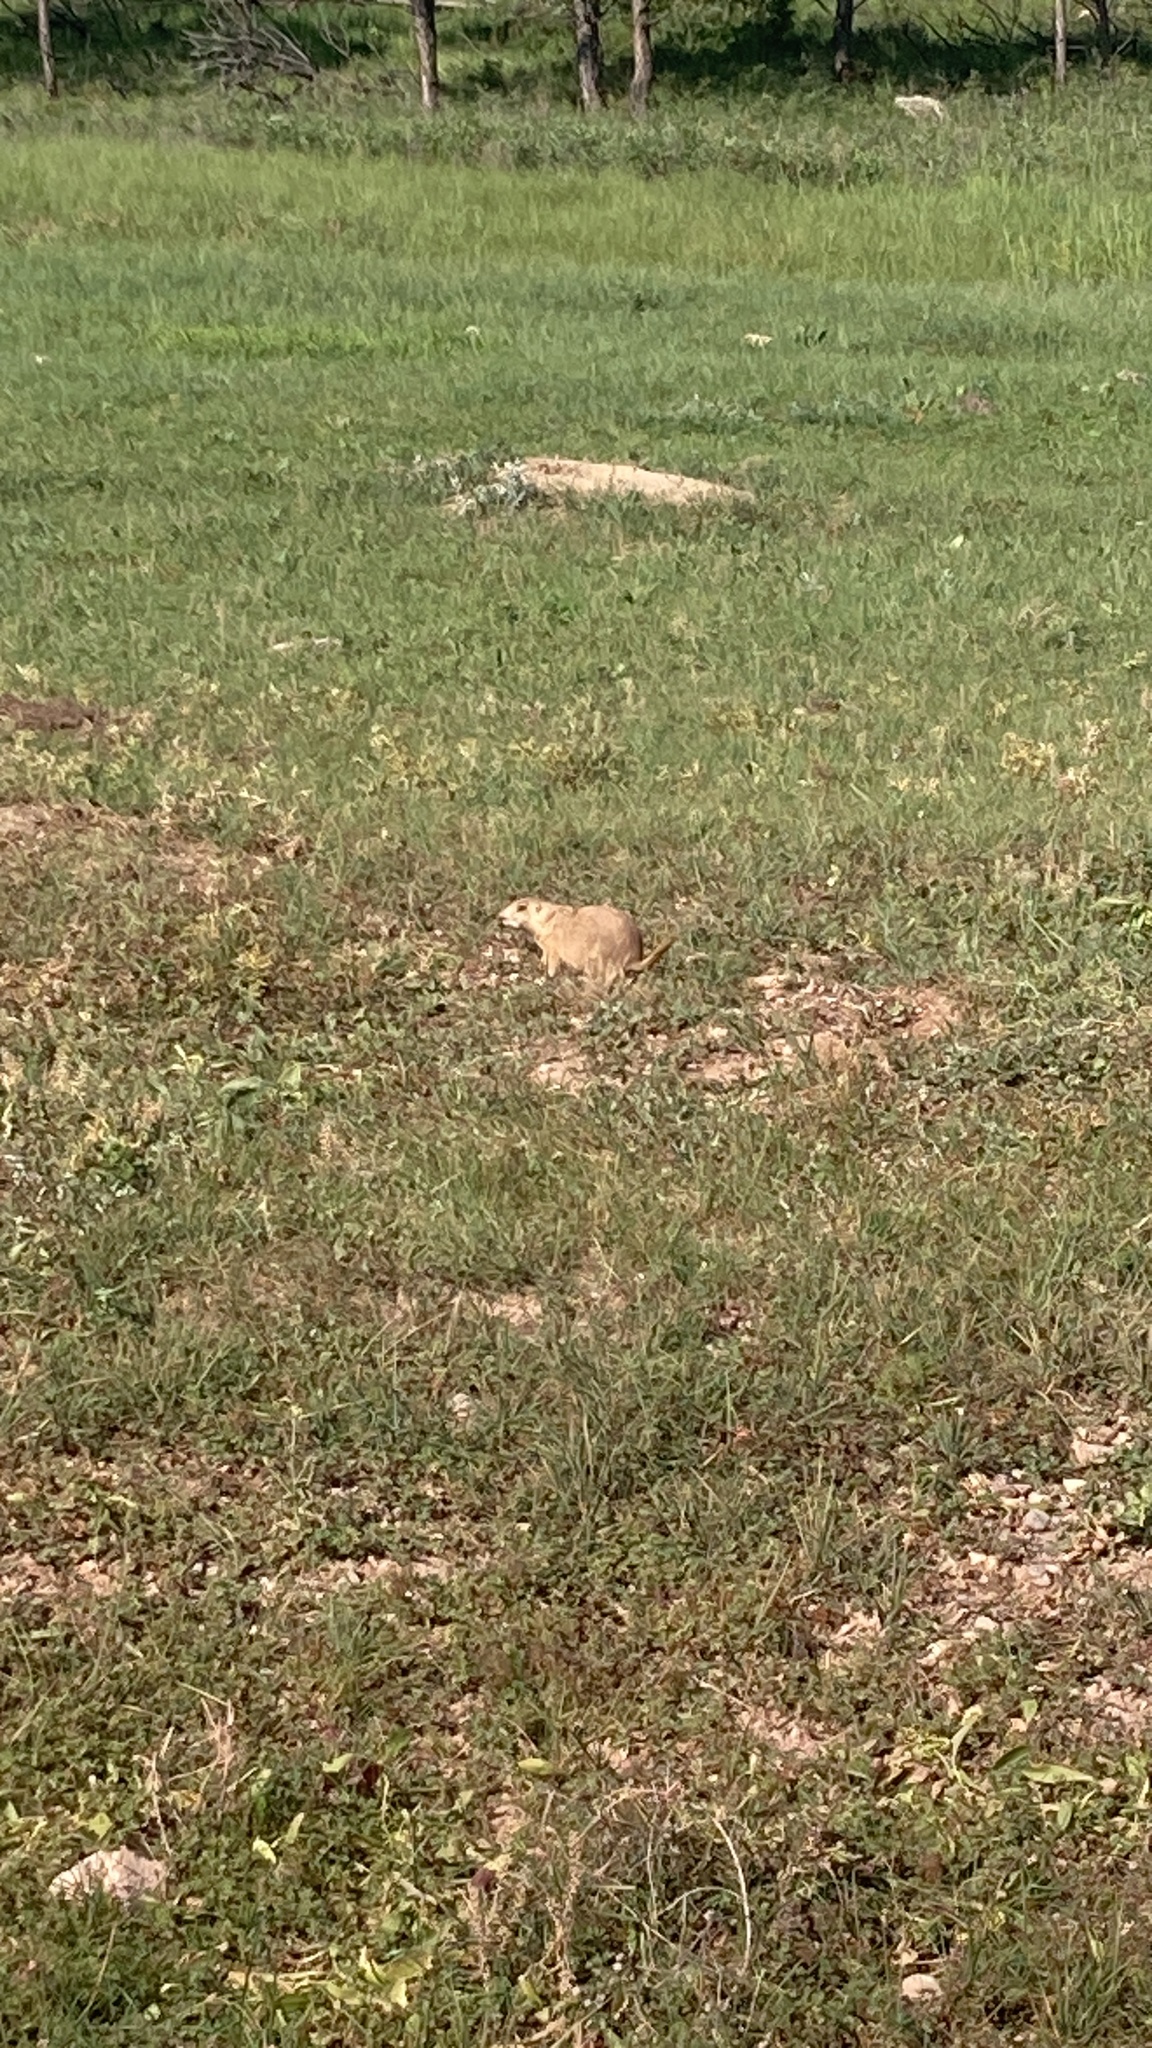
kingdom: Animalia
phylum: Chordata
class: Mammalia
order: Rodentia
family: Sciuridae
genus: Cynomys
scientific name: Cynomys ludovicianus
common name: Black-tailed prairie dog
